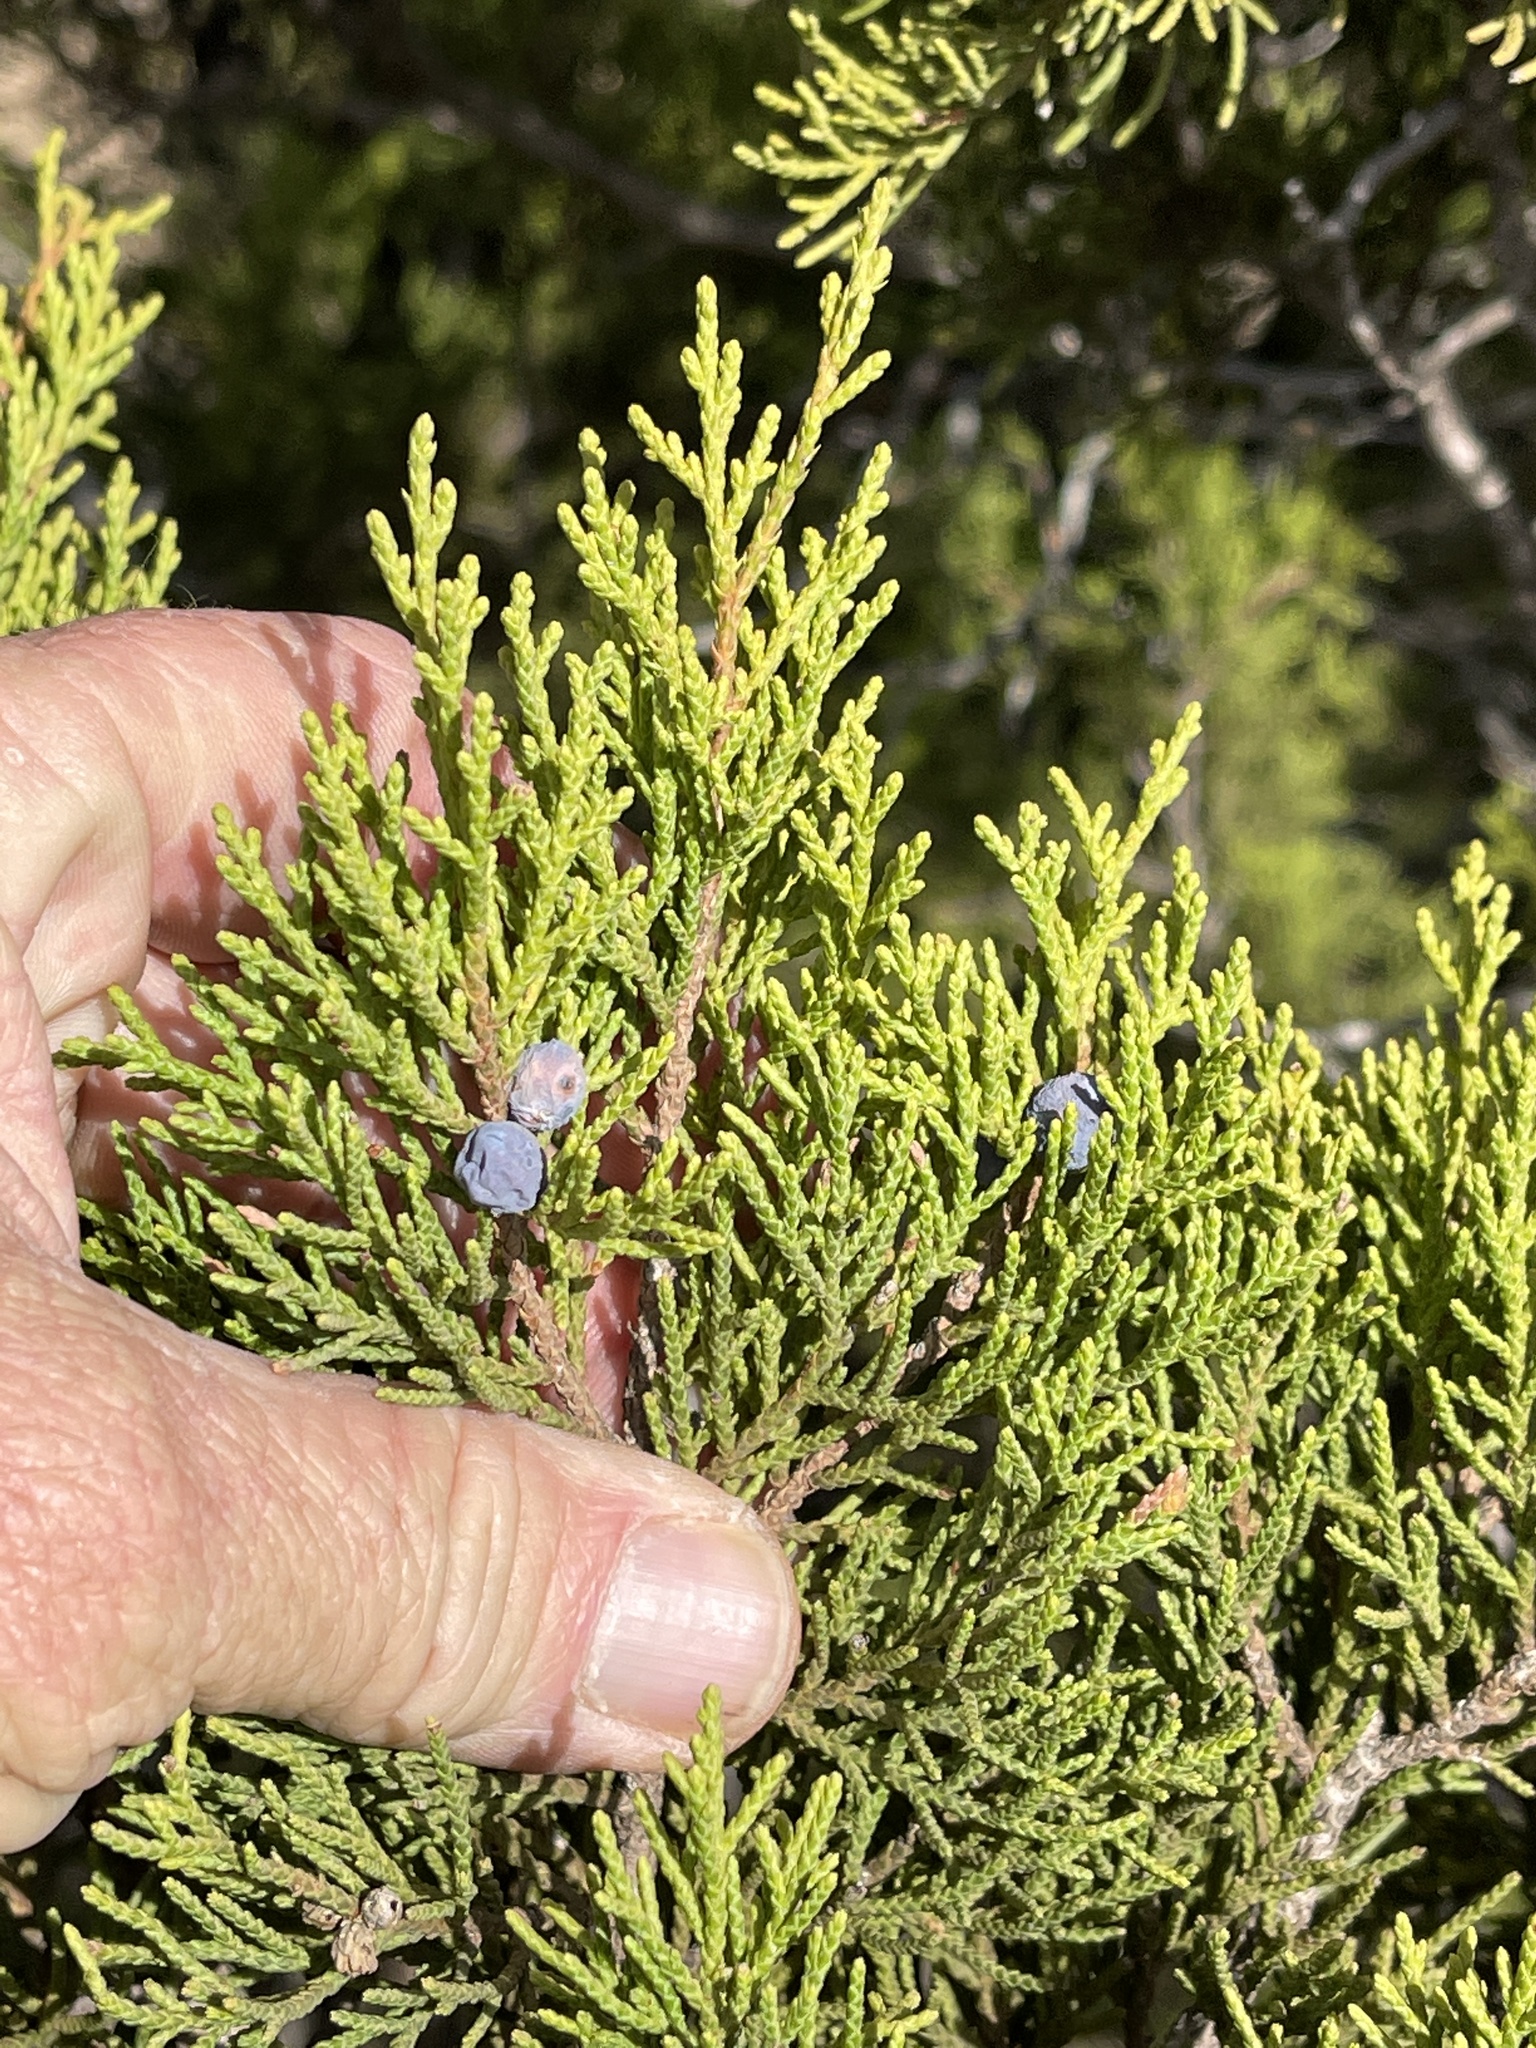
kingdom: Plantae
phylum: Tracheophyta
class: Pinopsida
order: Pinales
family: Cupressaceae
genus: Juniperus
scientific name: Juniperus ashei
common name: Mexican juniper
